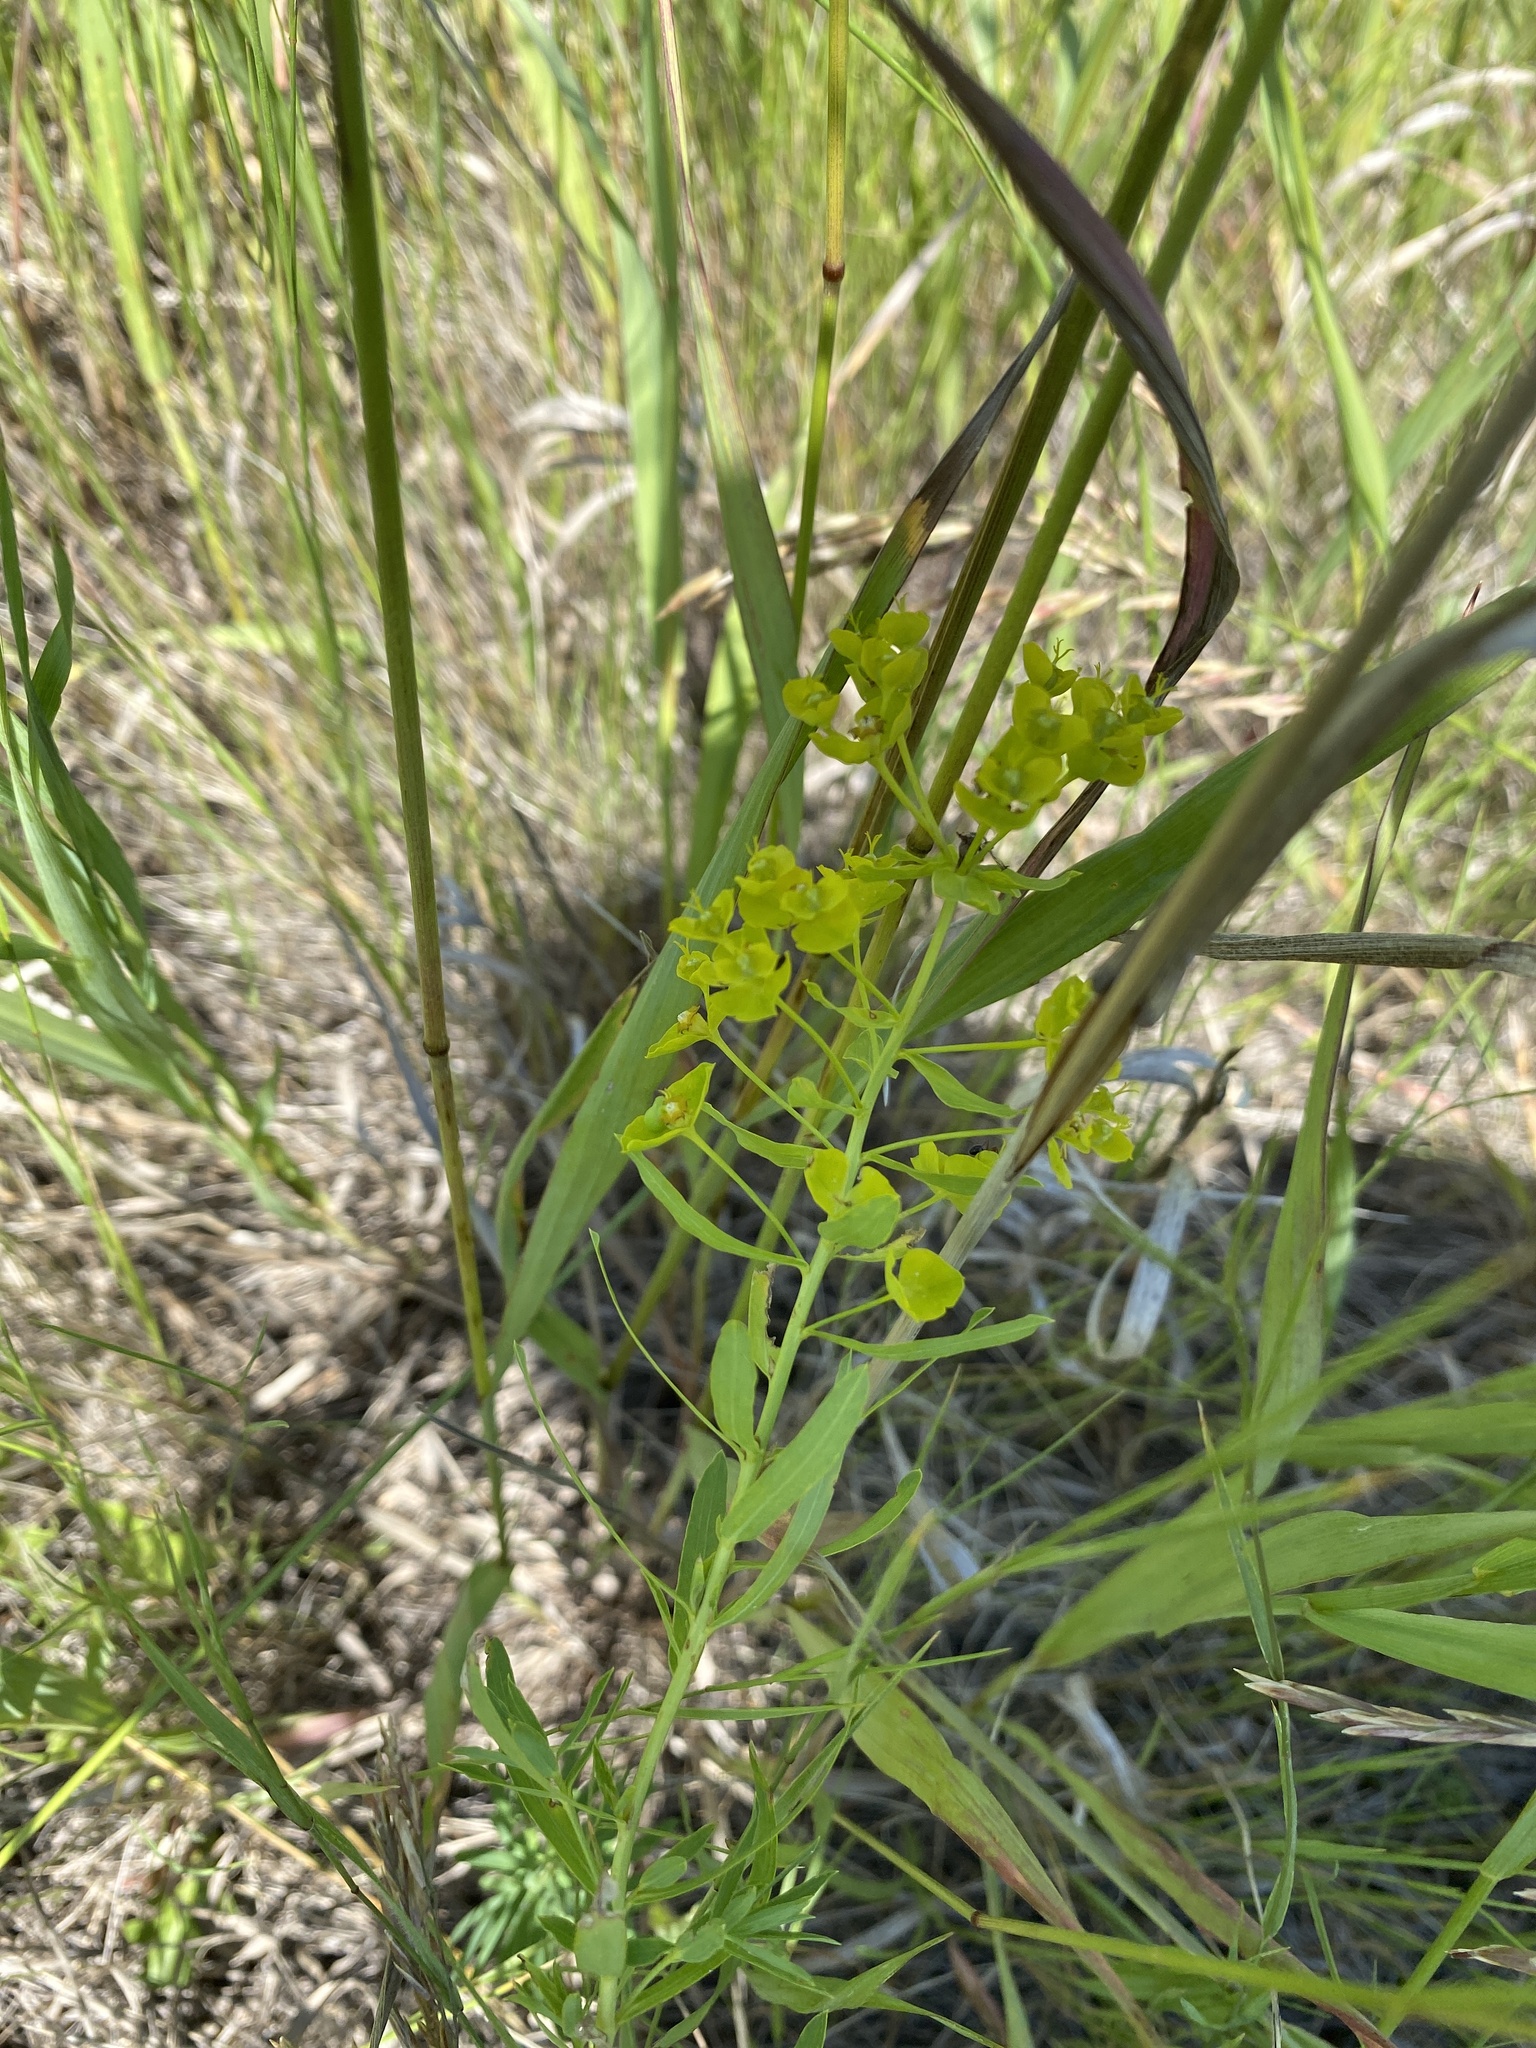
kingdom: Plantae
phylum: Tracheophyta
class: Magnoliopsida
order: Malpighiales
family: Euphorbiaceae
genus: Euphorbia
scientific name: Euphorbia virgata
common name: Leafy spurge
